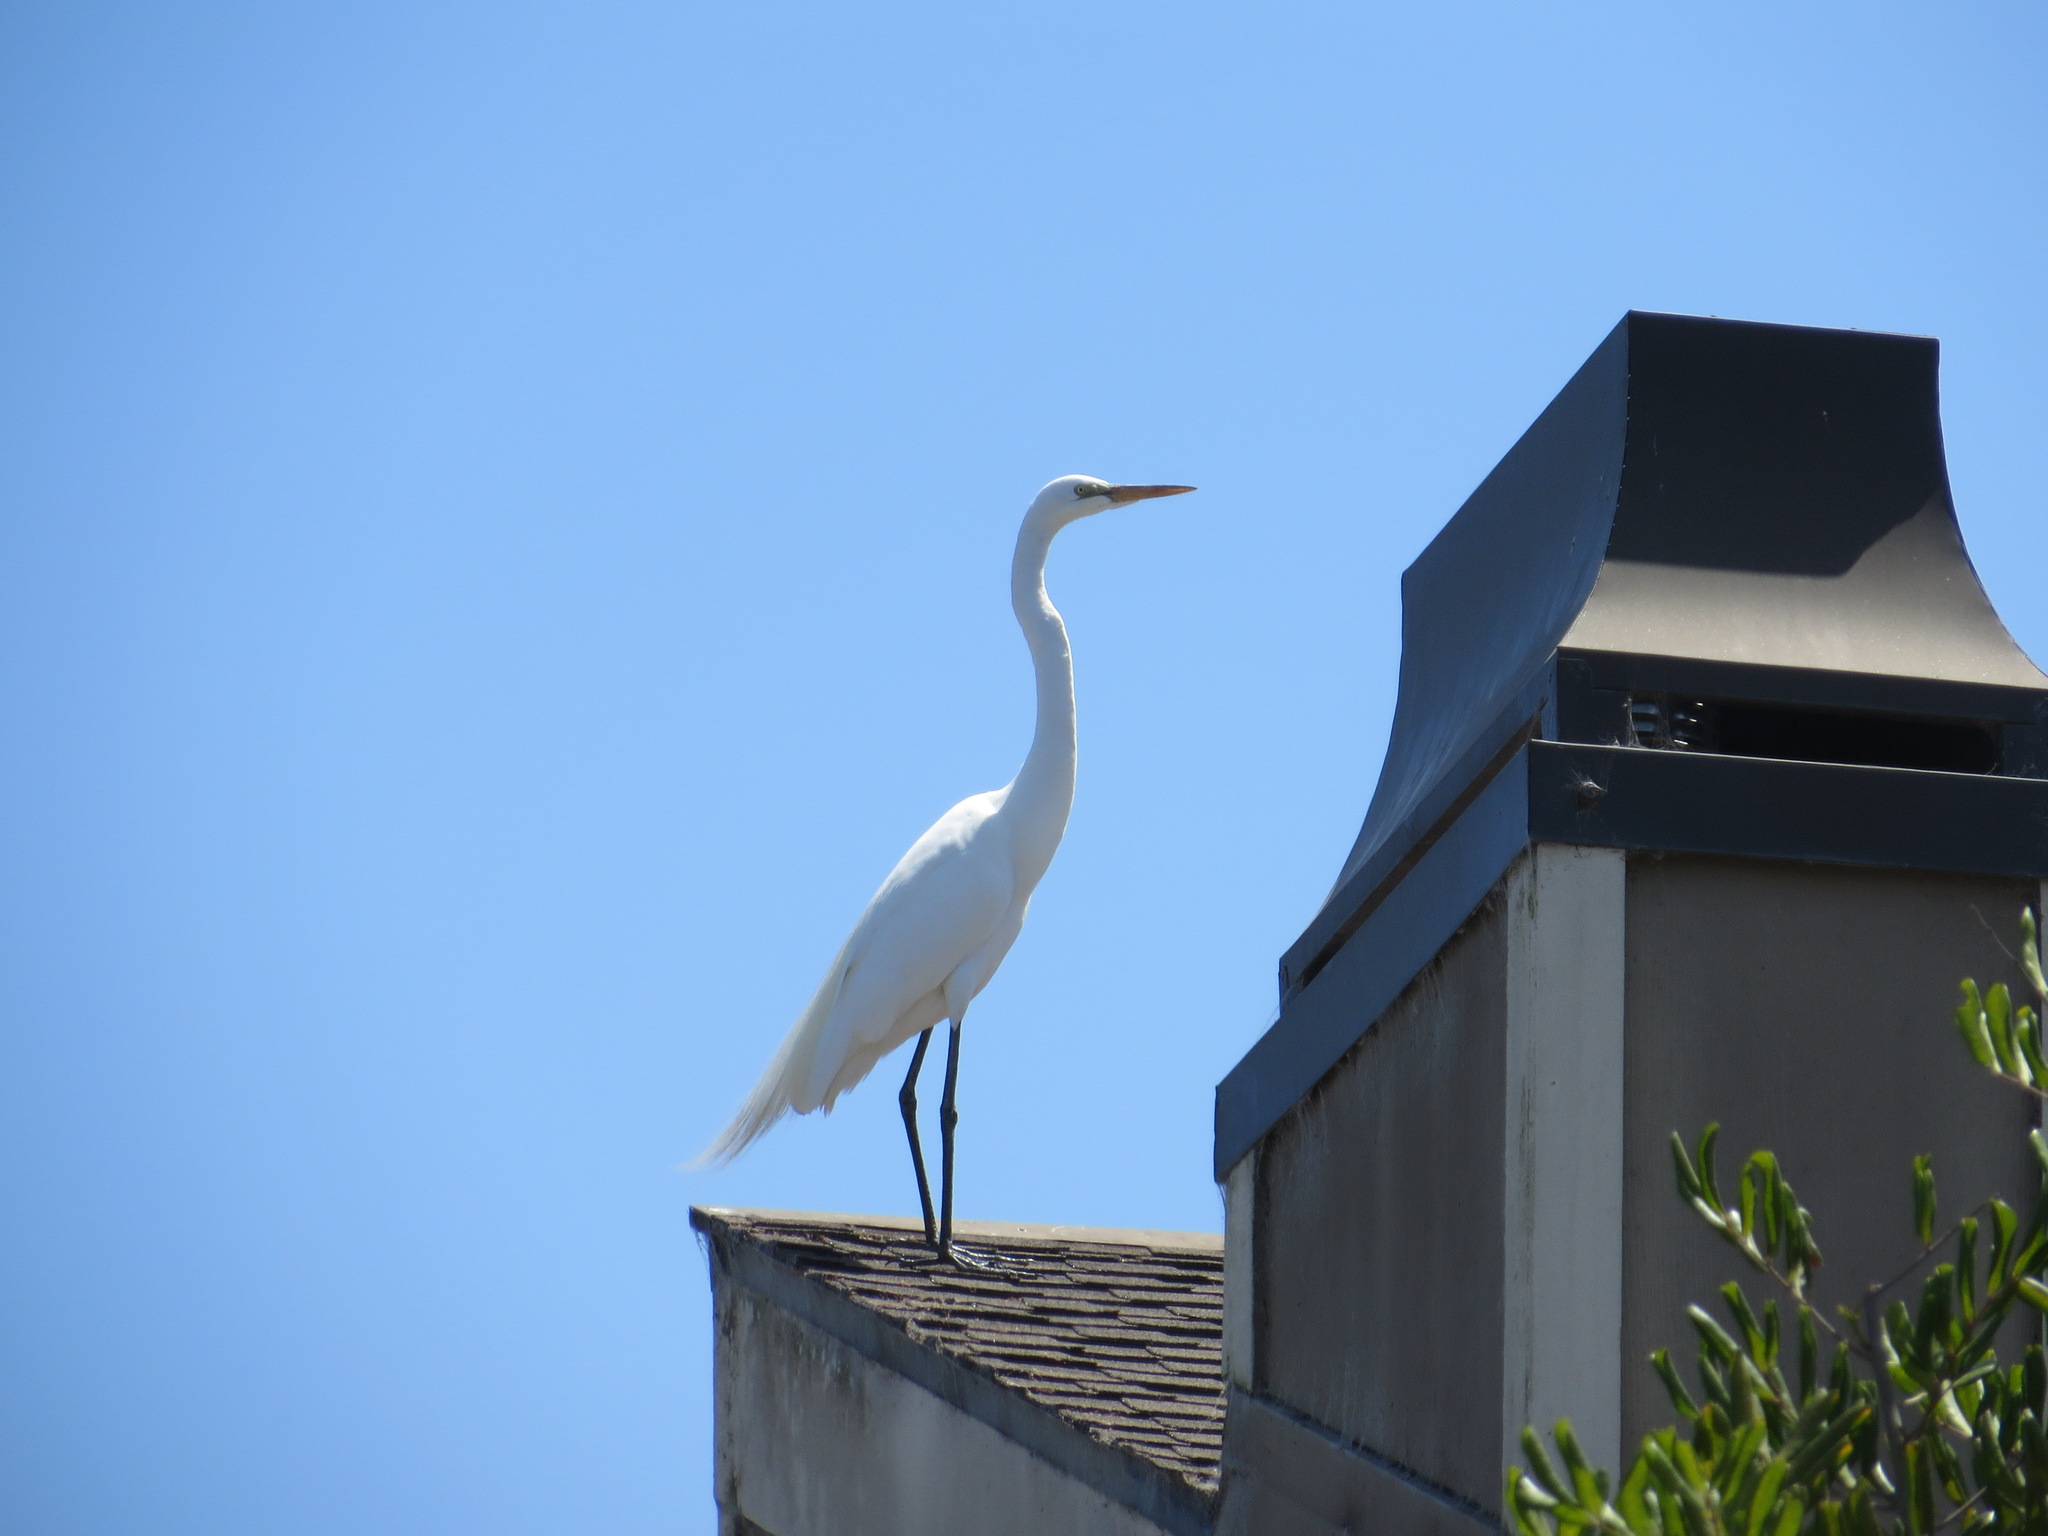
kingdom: Animalia
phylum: Chordata
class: Aves
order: Pelecaniformes
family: Ardeidae
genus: Ardea
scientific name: Ardea alba
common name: Great egret
